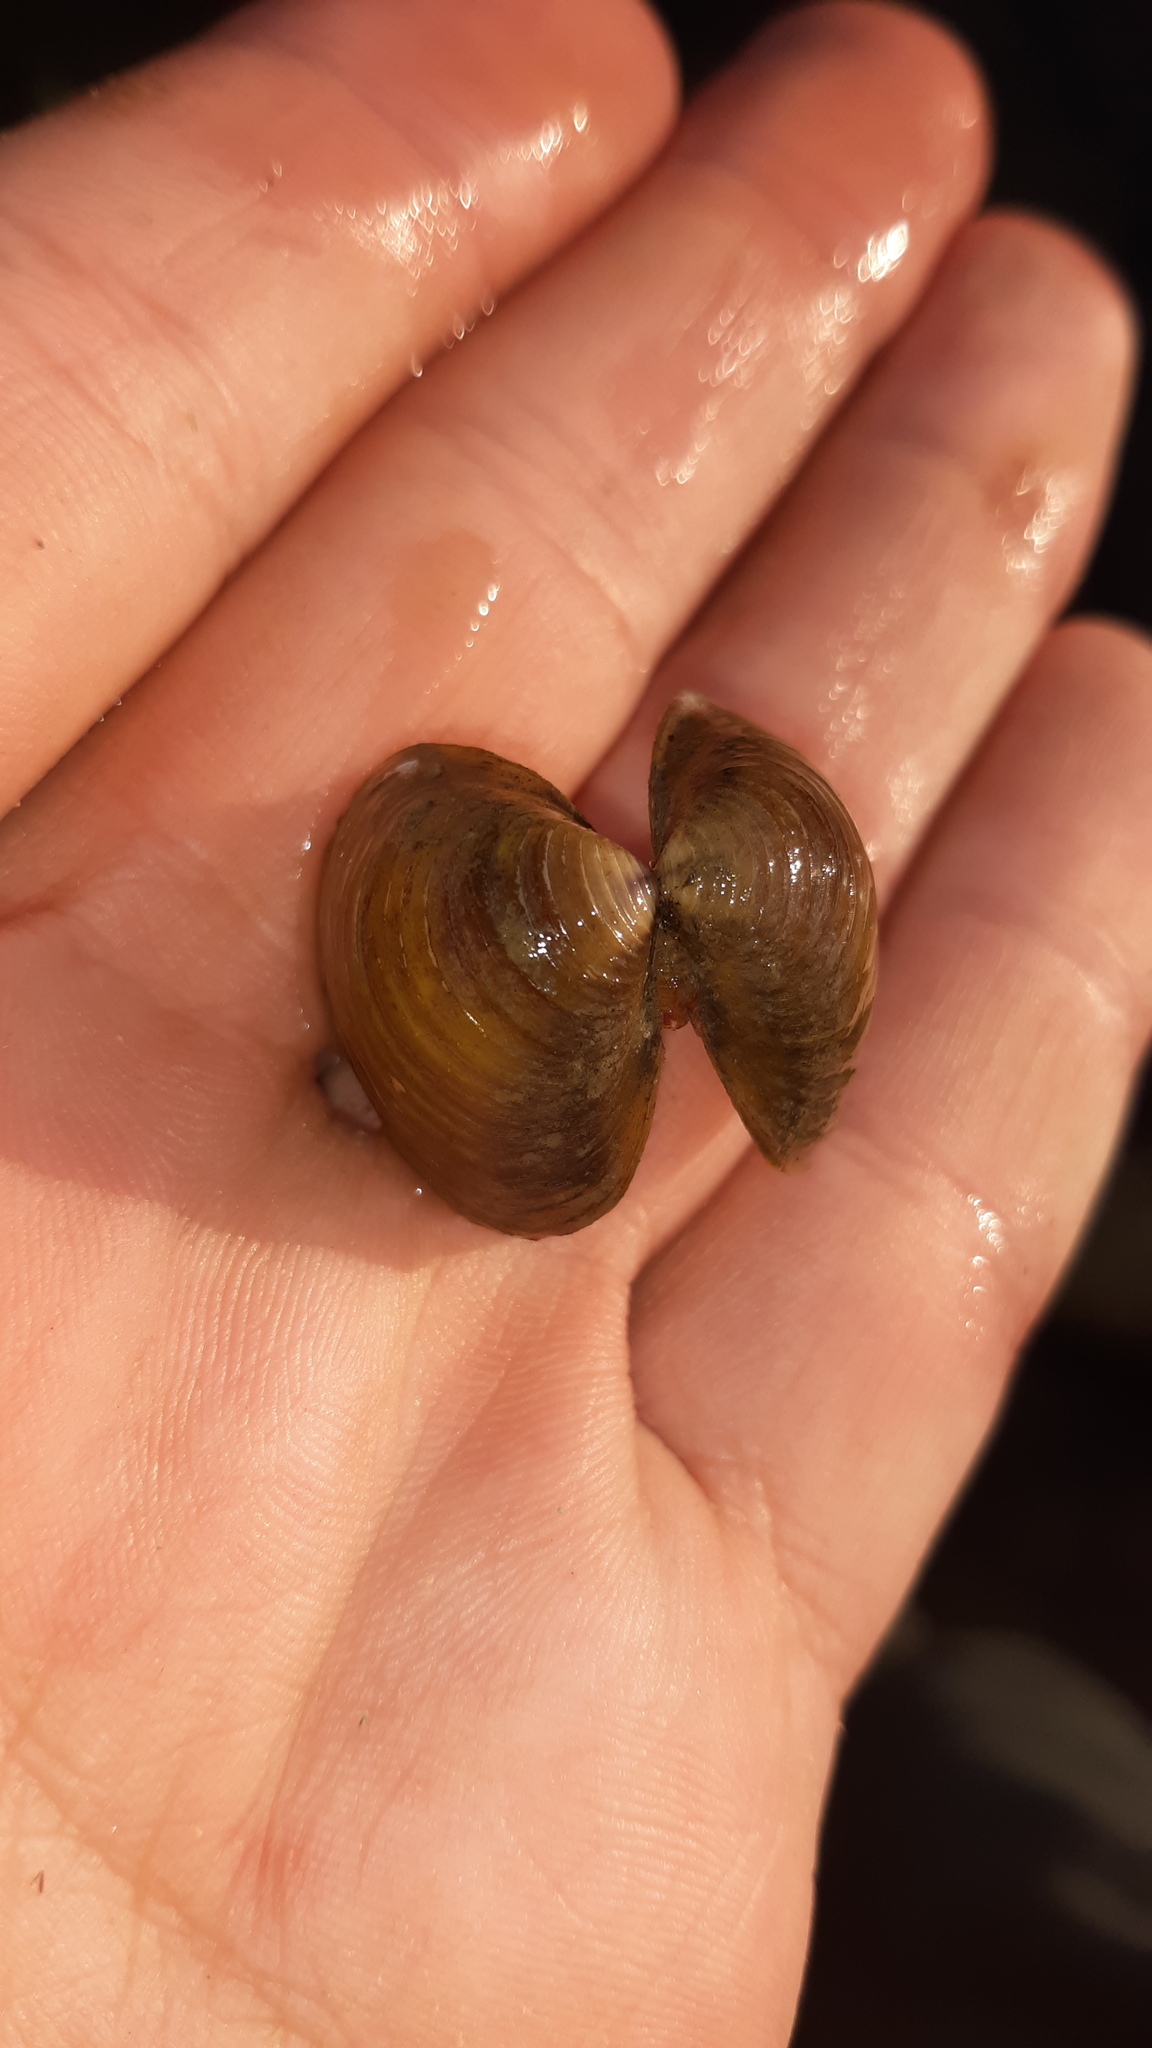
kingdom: Animalia
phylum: Mollusca
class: Bivalvia
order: Venerida
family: Cyrenidae
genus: Corbicula
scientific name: Corbicula fluminea
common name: Asian clam
